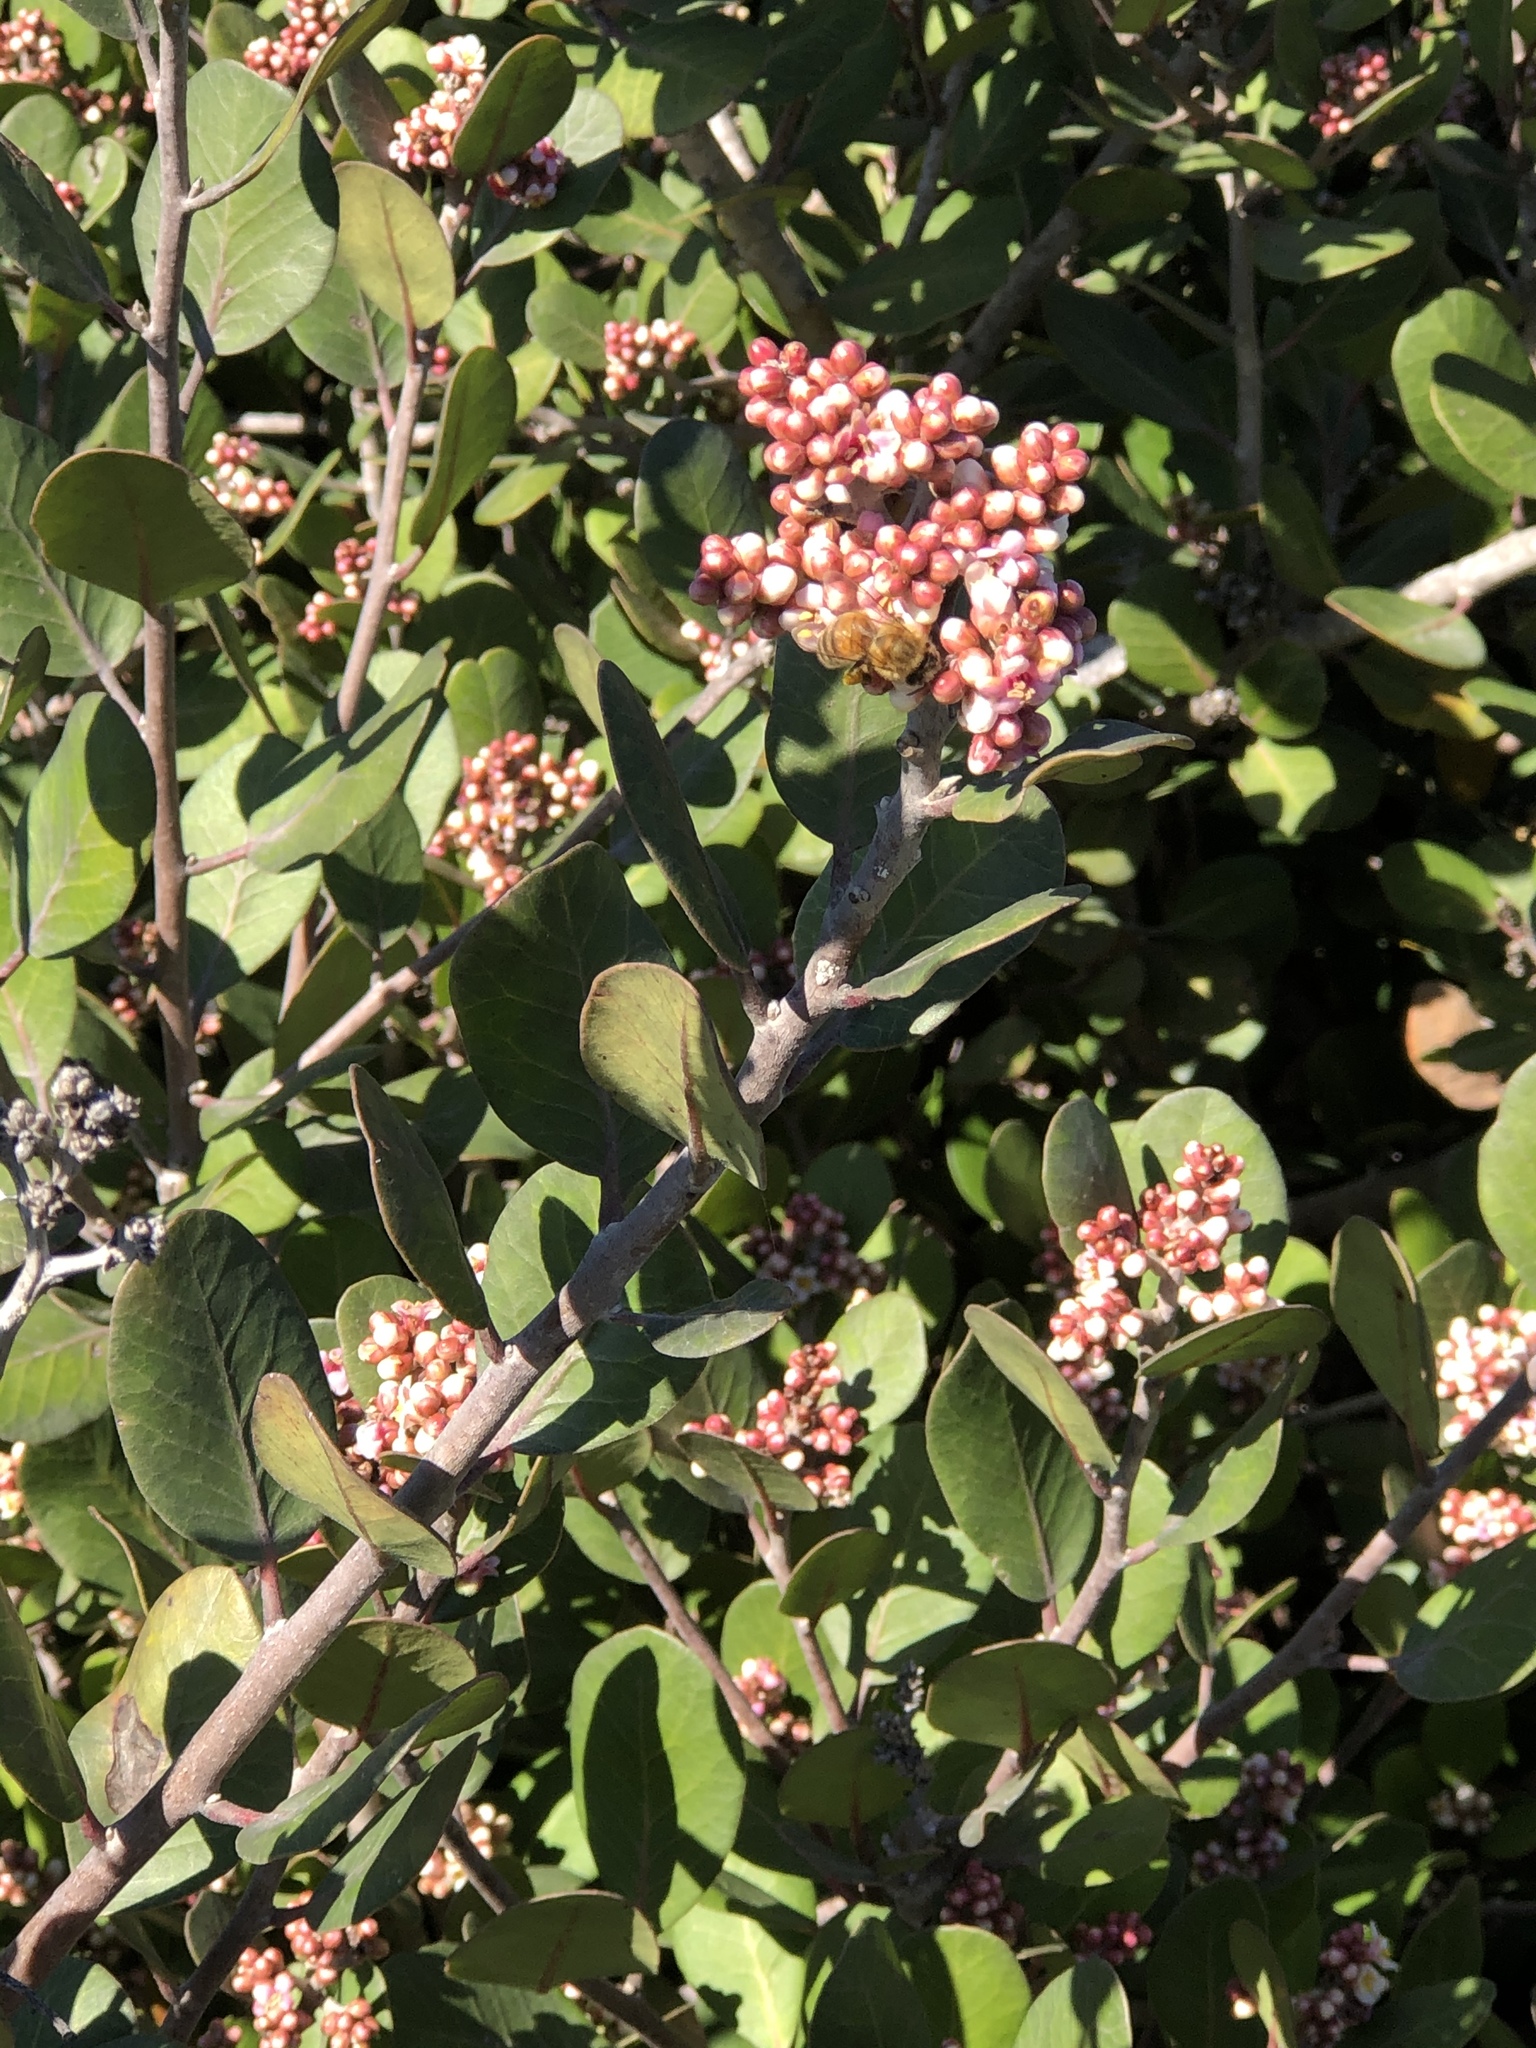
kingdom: Plantae
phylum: Tracheophyta
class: Magnoliopsida
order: Sapindales
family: Anacardiaceae
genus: Rhus
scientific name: Rhus integrifolia
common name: Lemonade sumac
